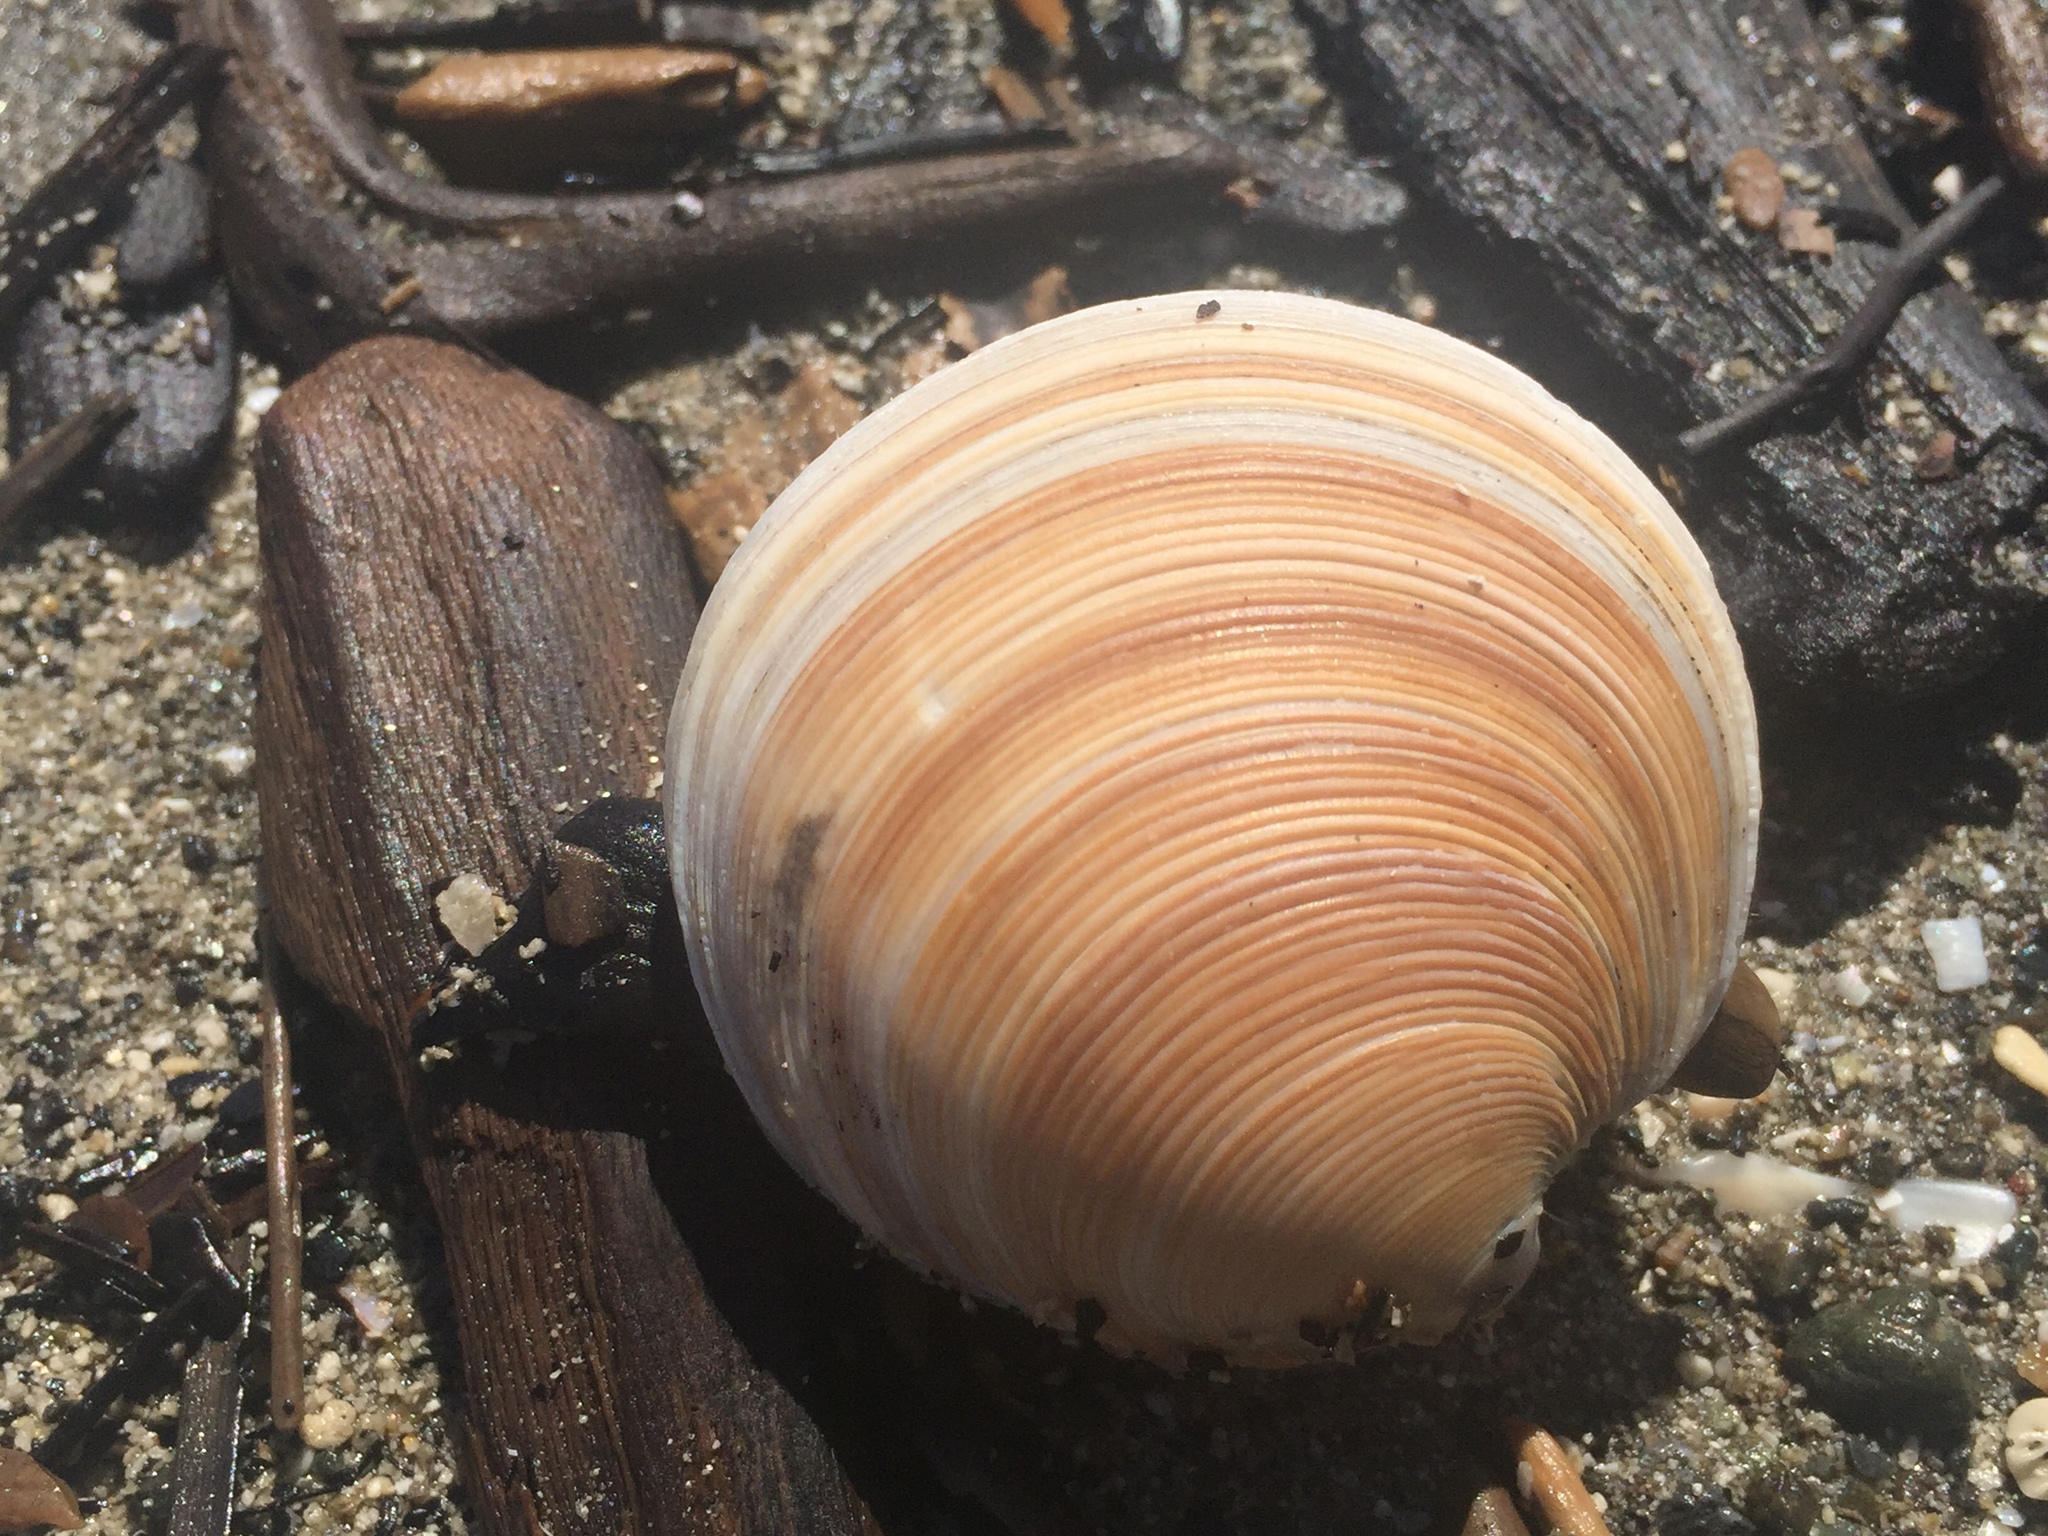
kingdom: Animalia
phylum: Mollusca
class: Bivalvia
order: Venerida
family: Veneridae
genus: Dosinia
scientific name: Dosinia anus
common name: Old-woman dosinia
